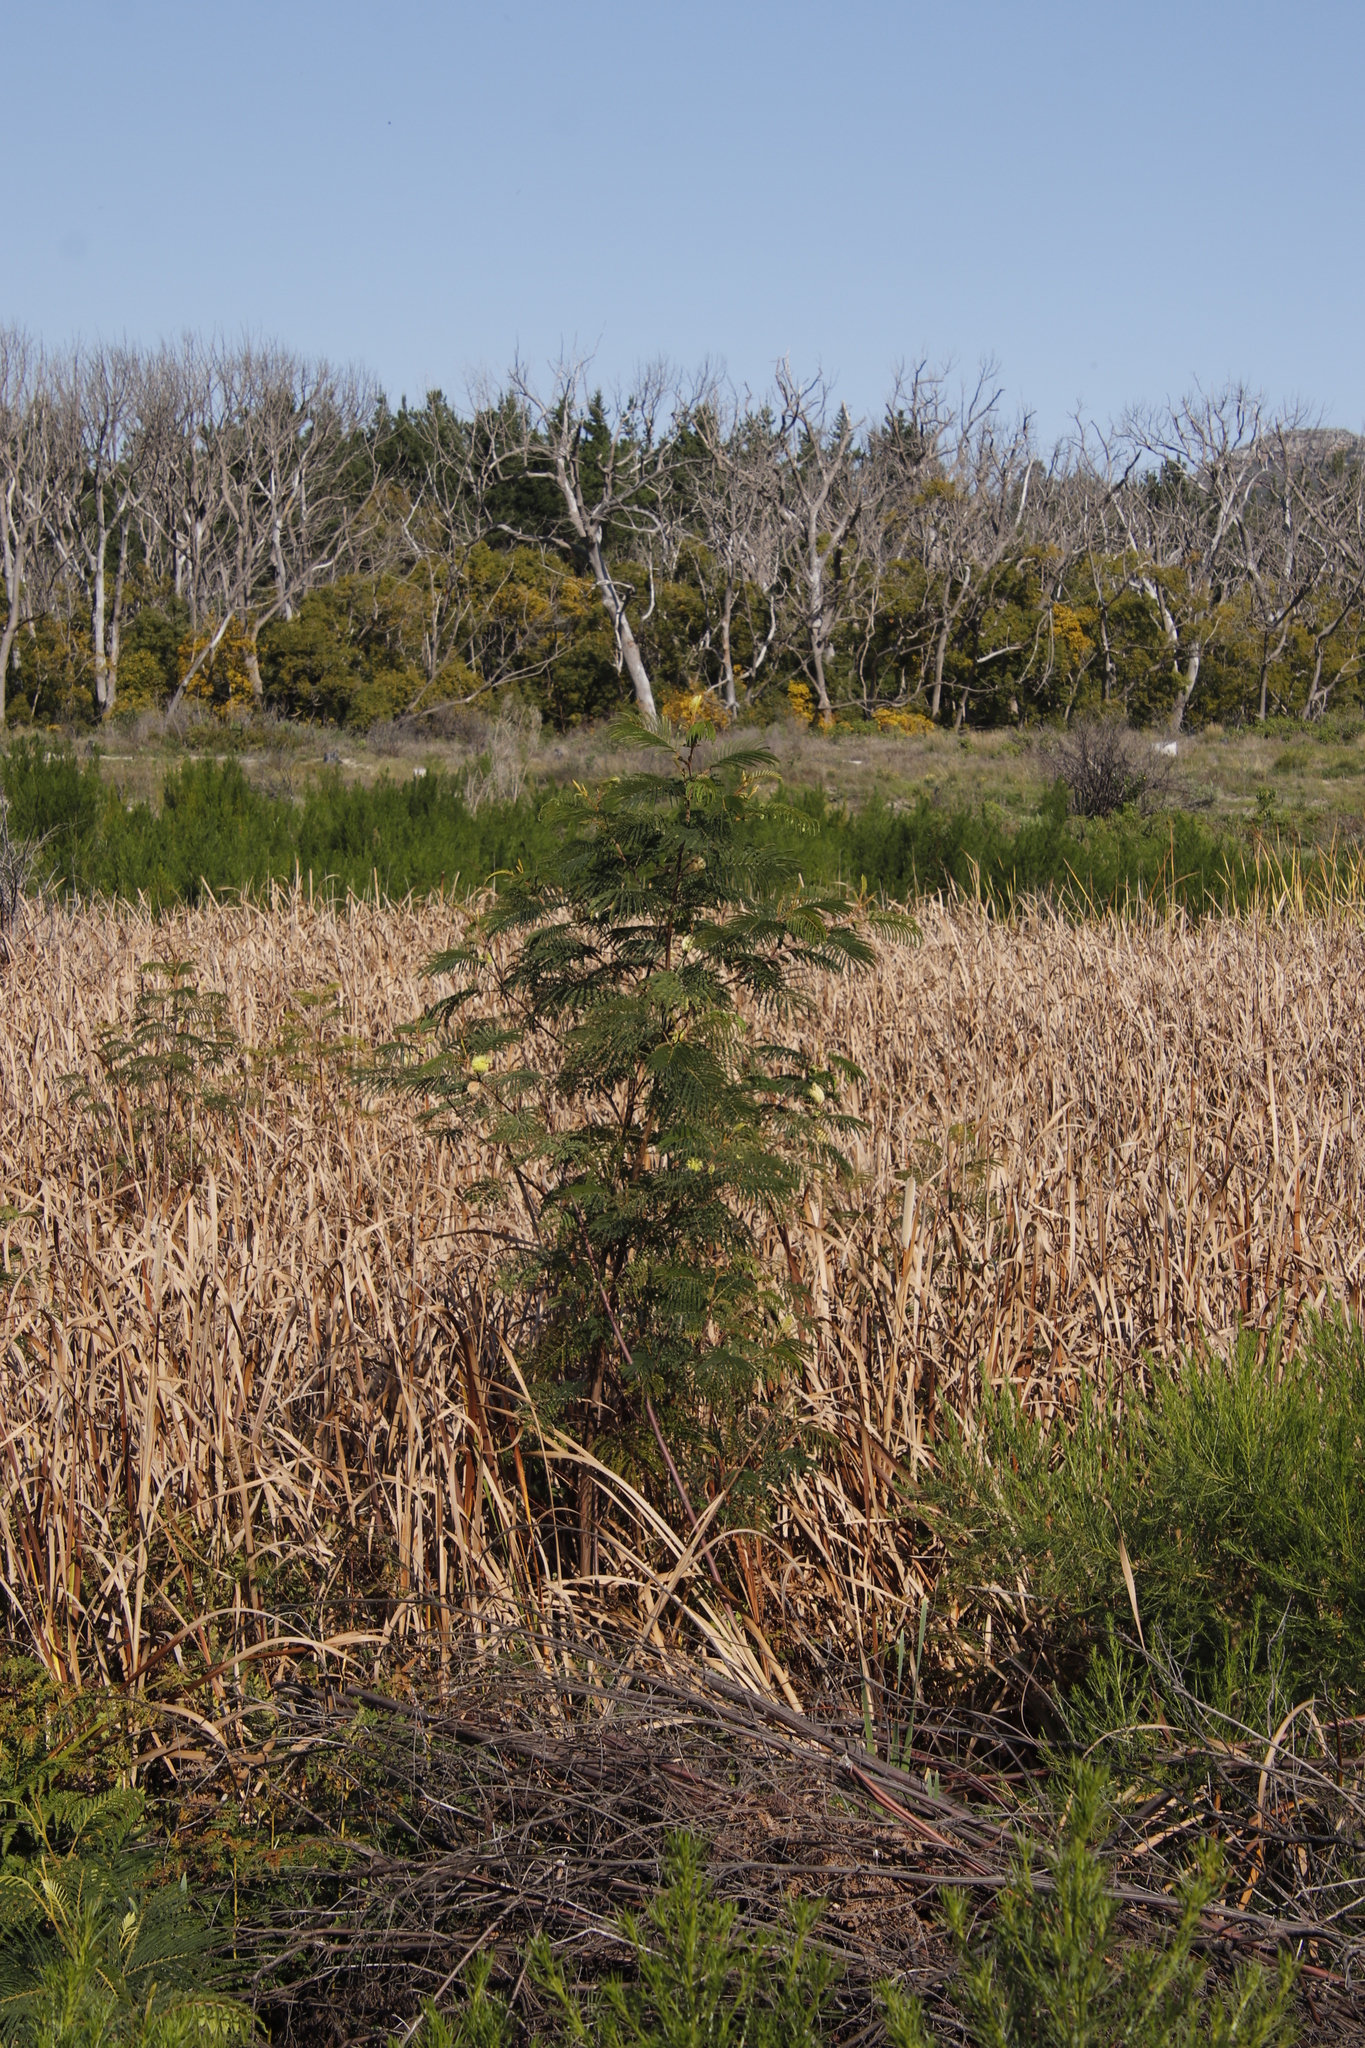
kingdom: Plantae
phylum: Tracheophyta
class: Magnoliopsida
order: Fabales
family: Fabaceae
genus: Paraserianthes
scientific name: Paraserianthes lophantha
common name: Plume albizia
